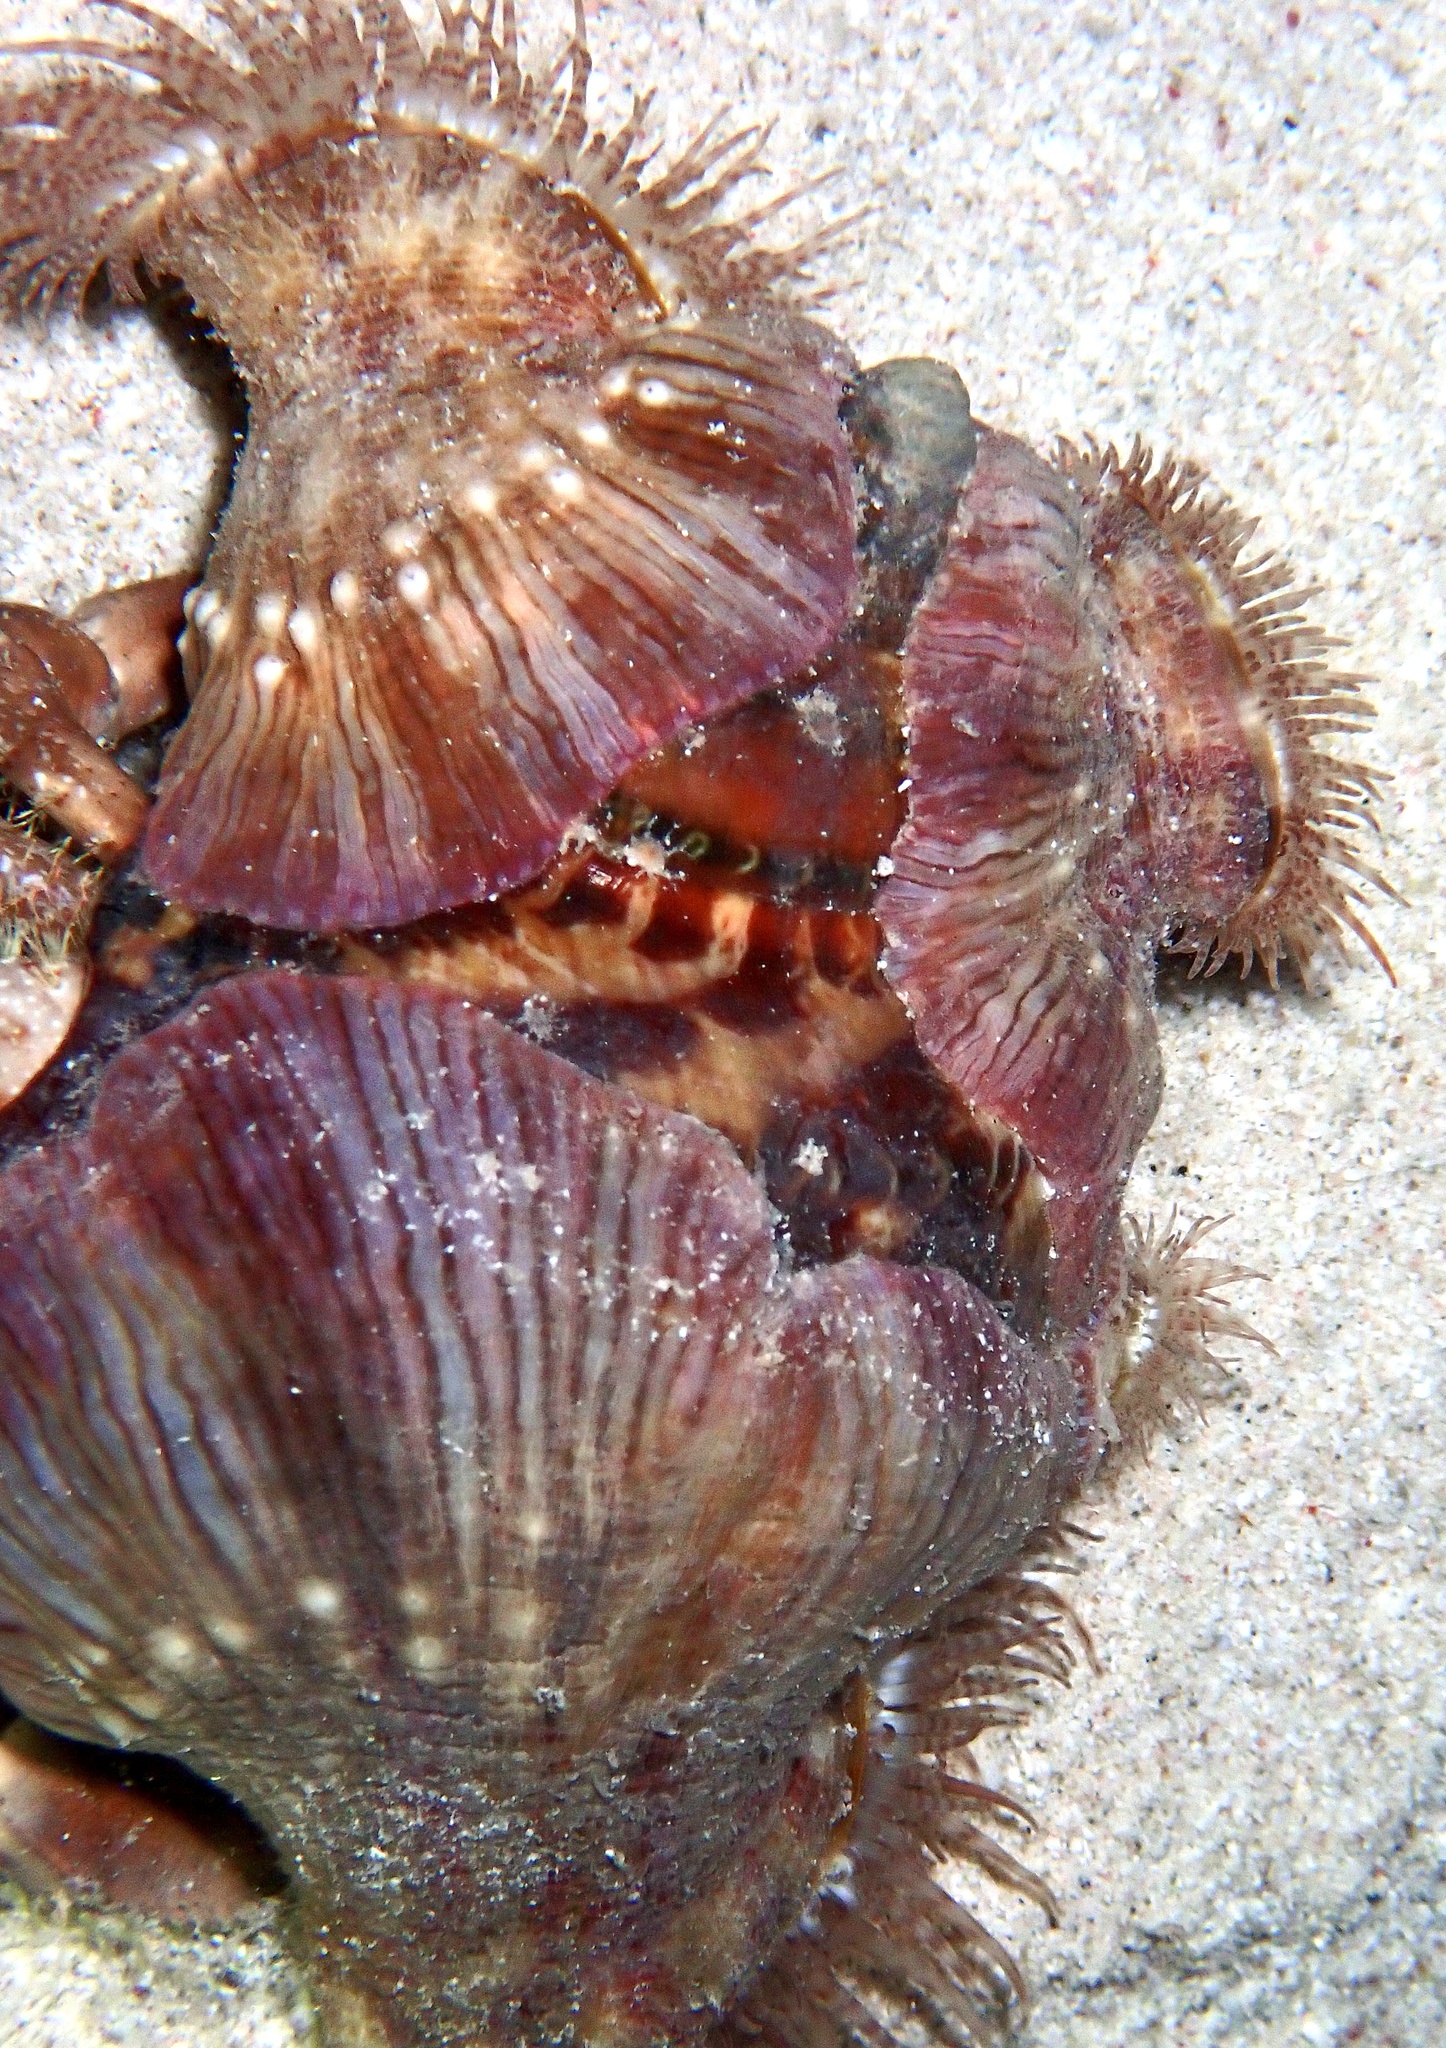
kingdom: Animalia
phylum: Cnidaria
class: Anthozoa
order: Actiniaria
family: Hormathiidae
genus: Calliactis
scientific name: Calliactis polypus
